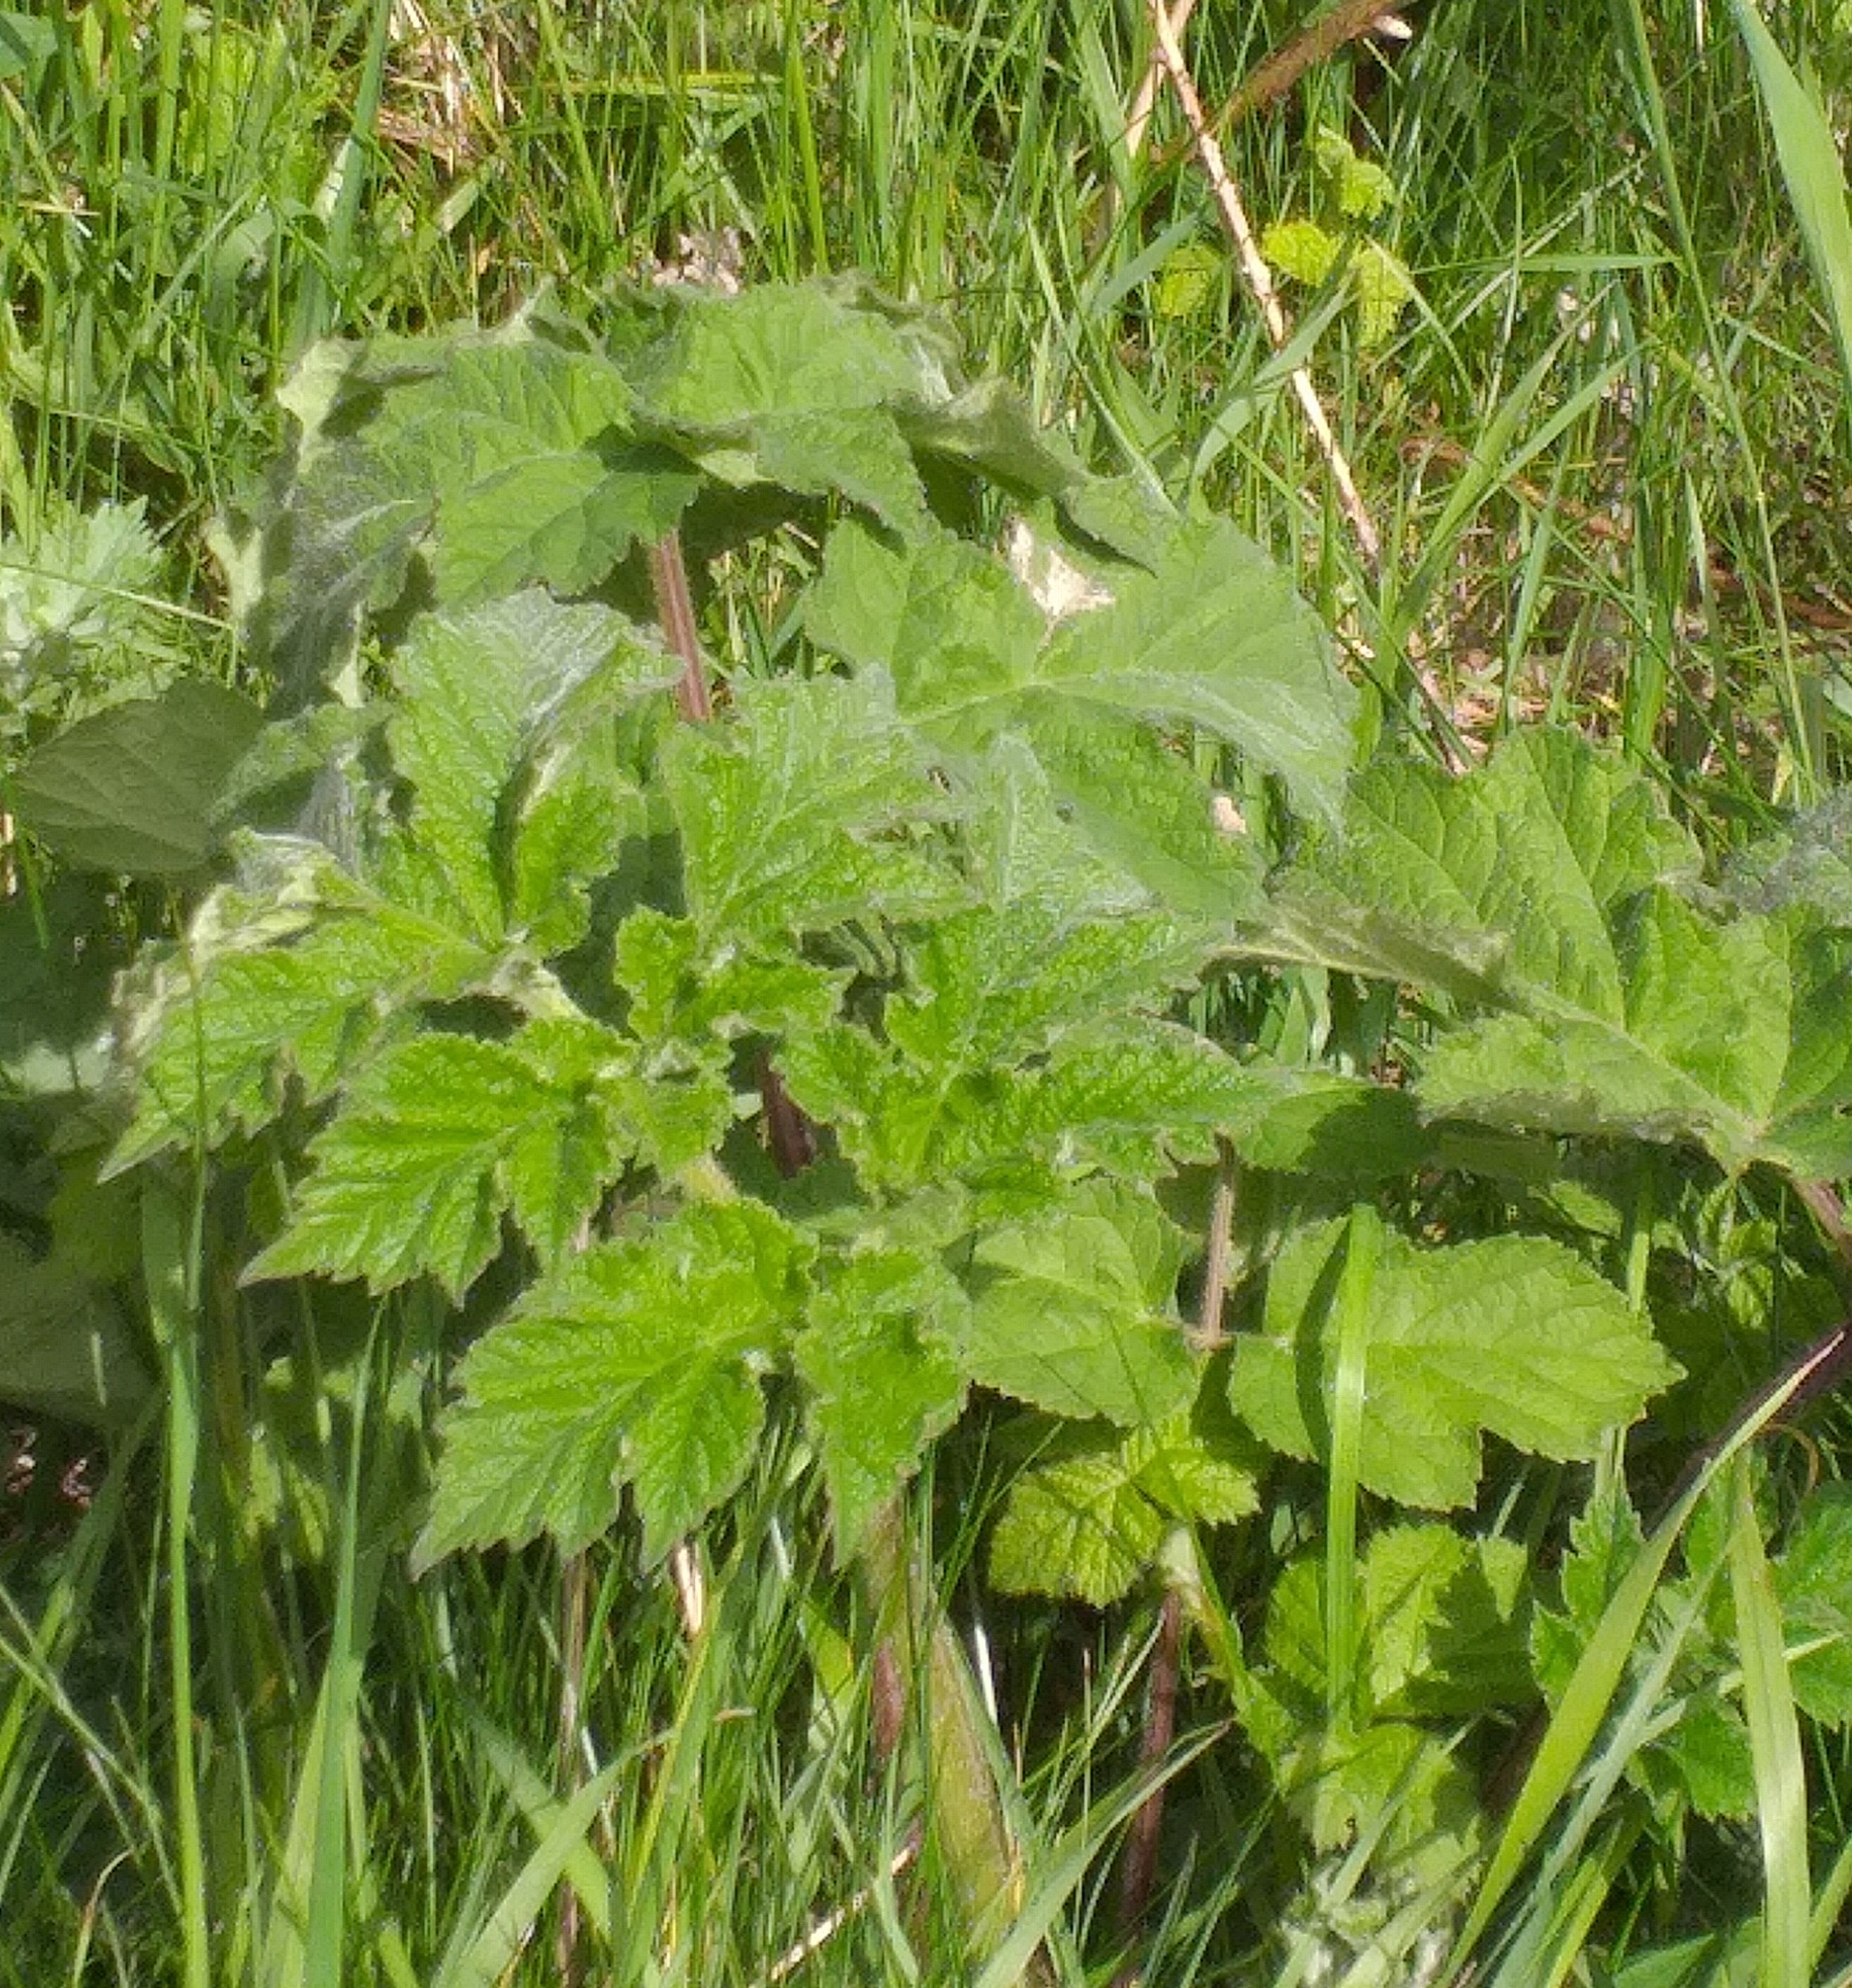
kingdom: Plantae
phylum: Tracheophyta
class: Magnoliopsida
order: Apiales
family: Apiaceae
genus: Heracleum
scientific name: Heracleum sphondylium
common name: Hogweed
